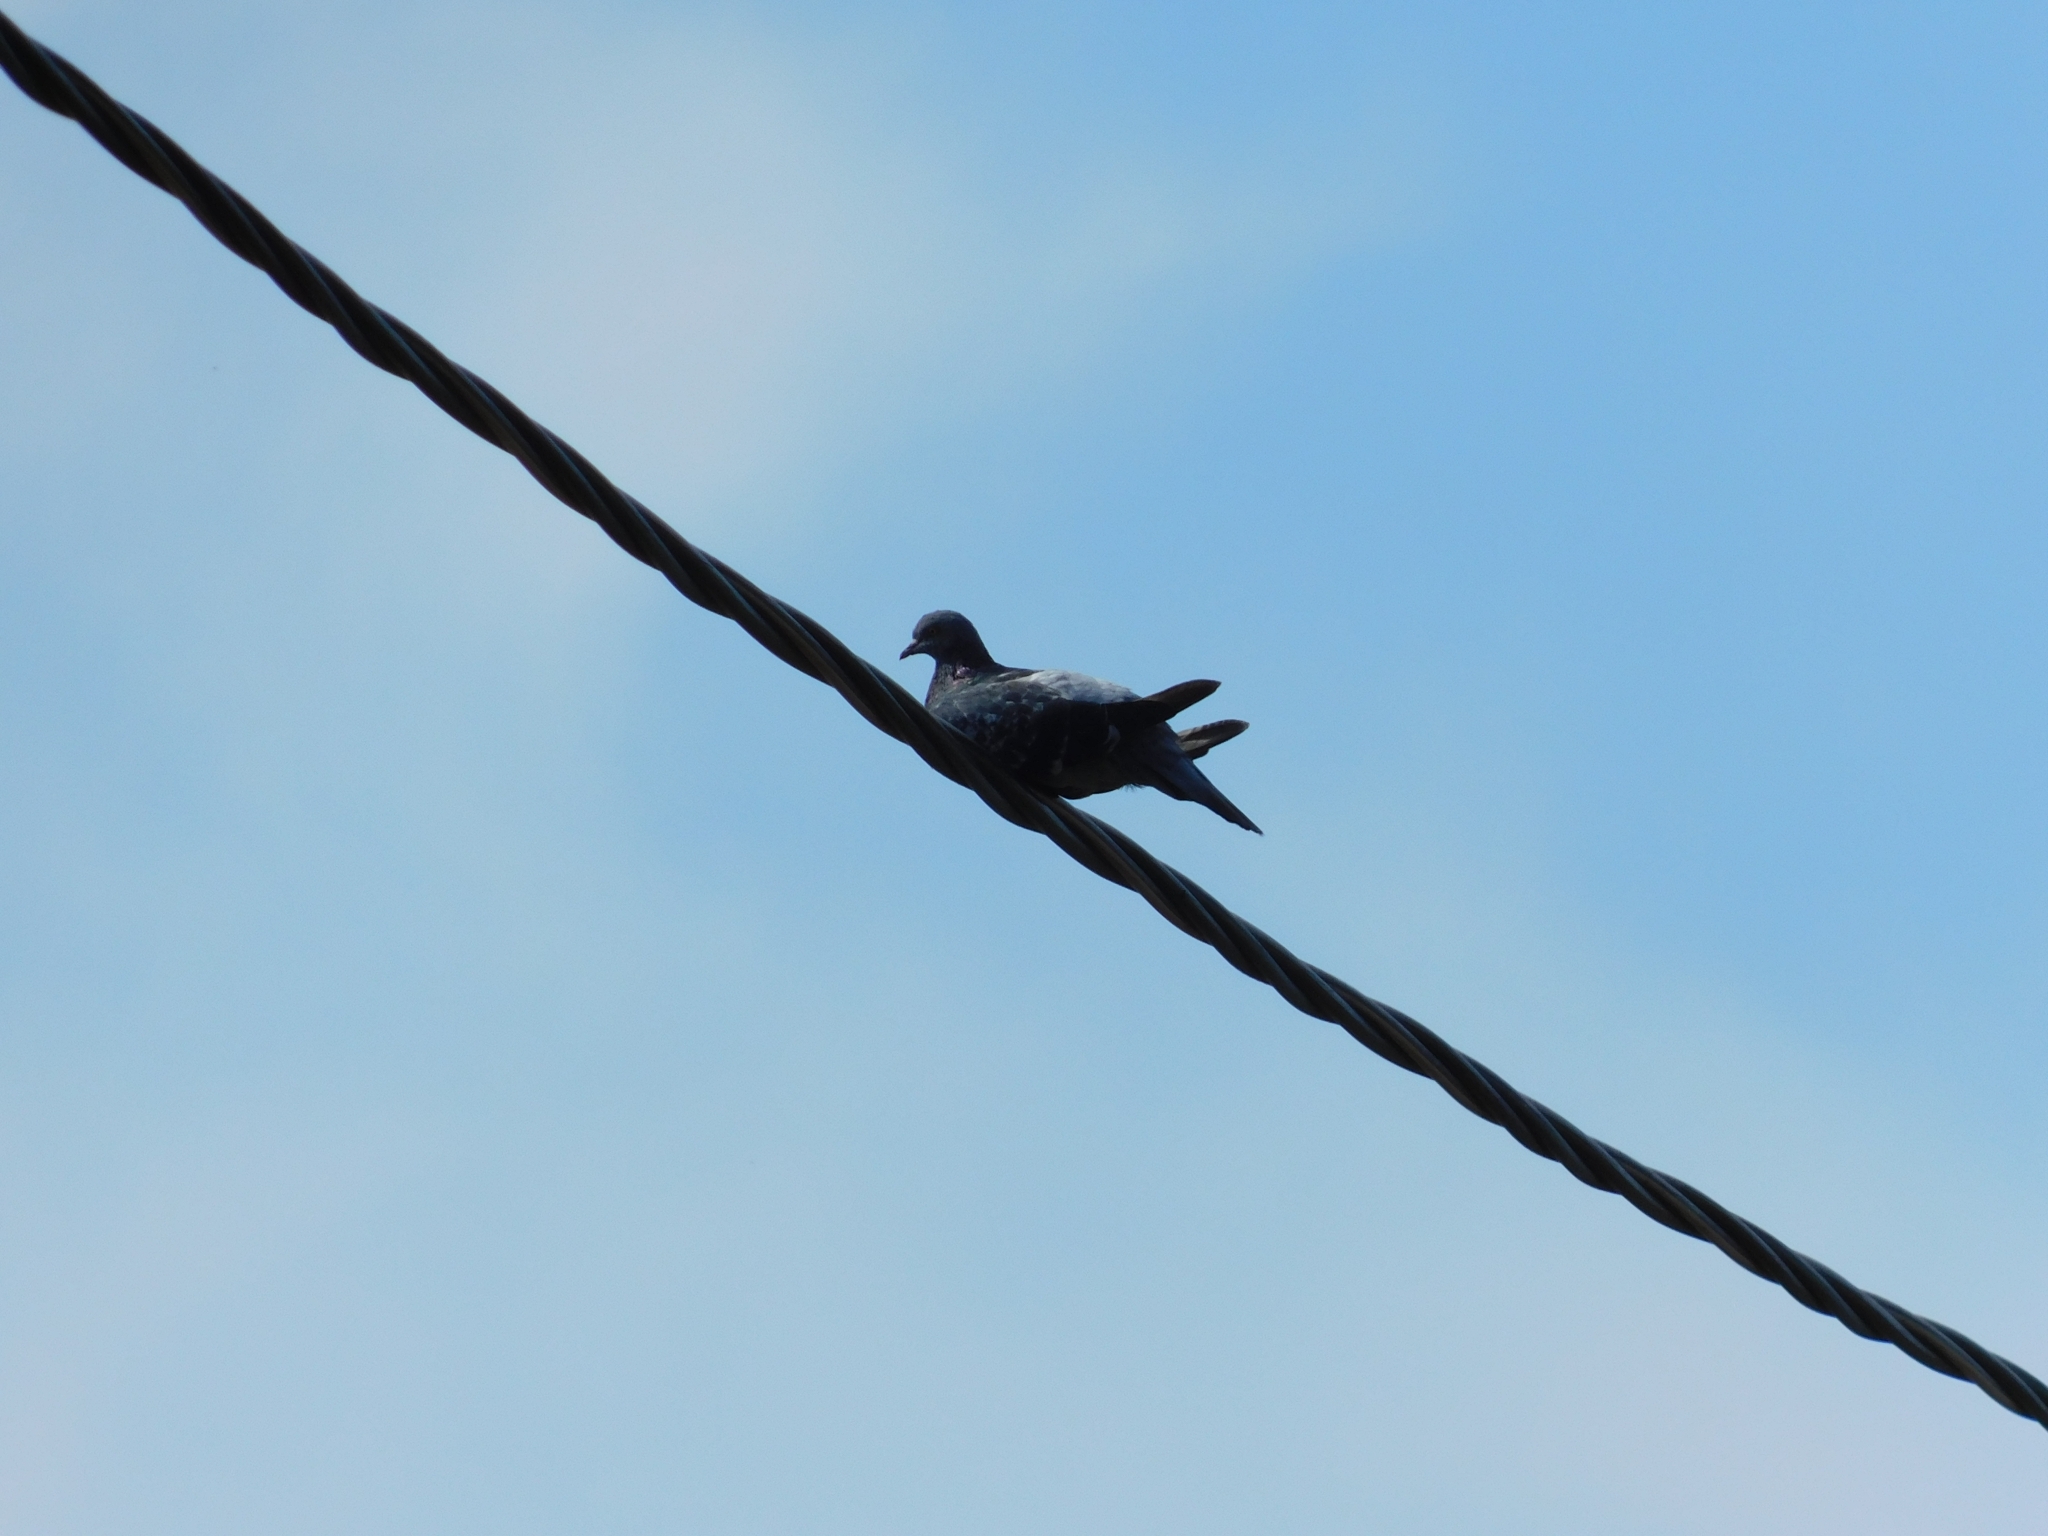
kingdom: Animalia
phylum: Chordata
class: Aves
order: Columbiformes
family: Columbidae
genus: Columba
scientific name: Columba livia
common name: Rock pigeon
